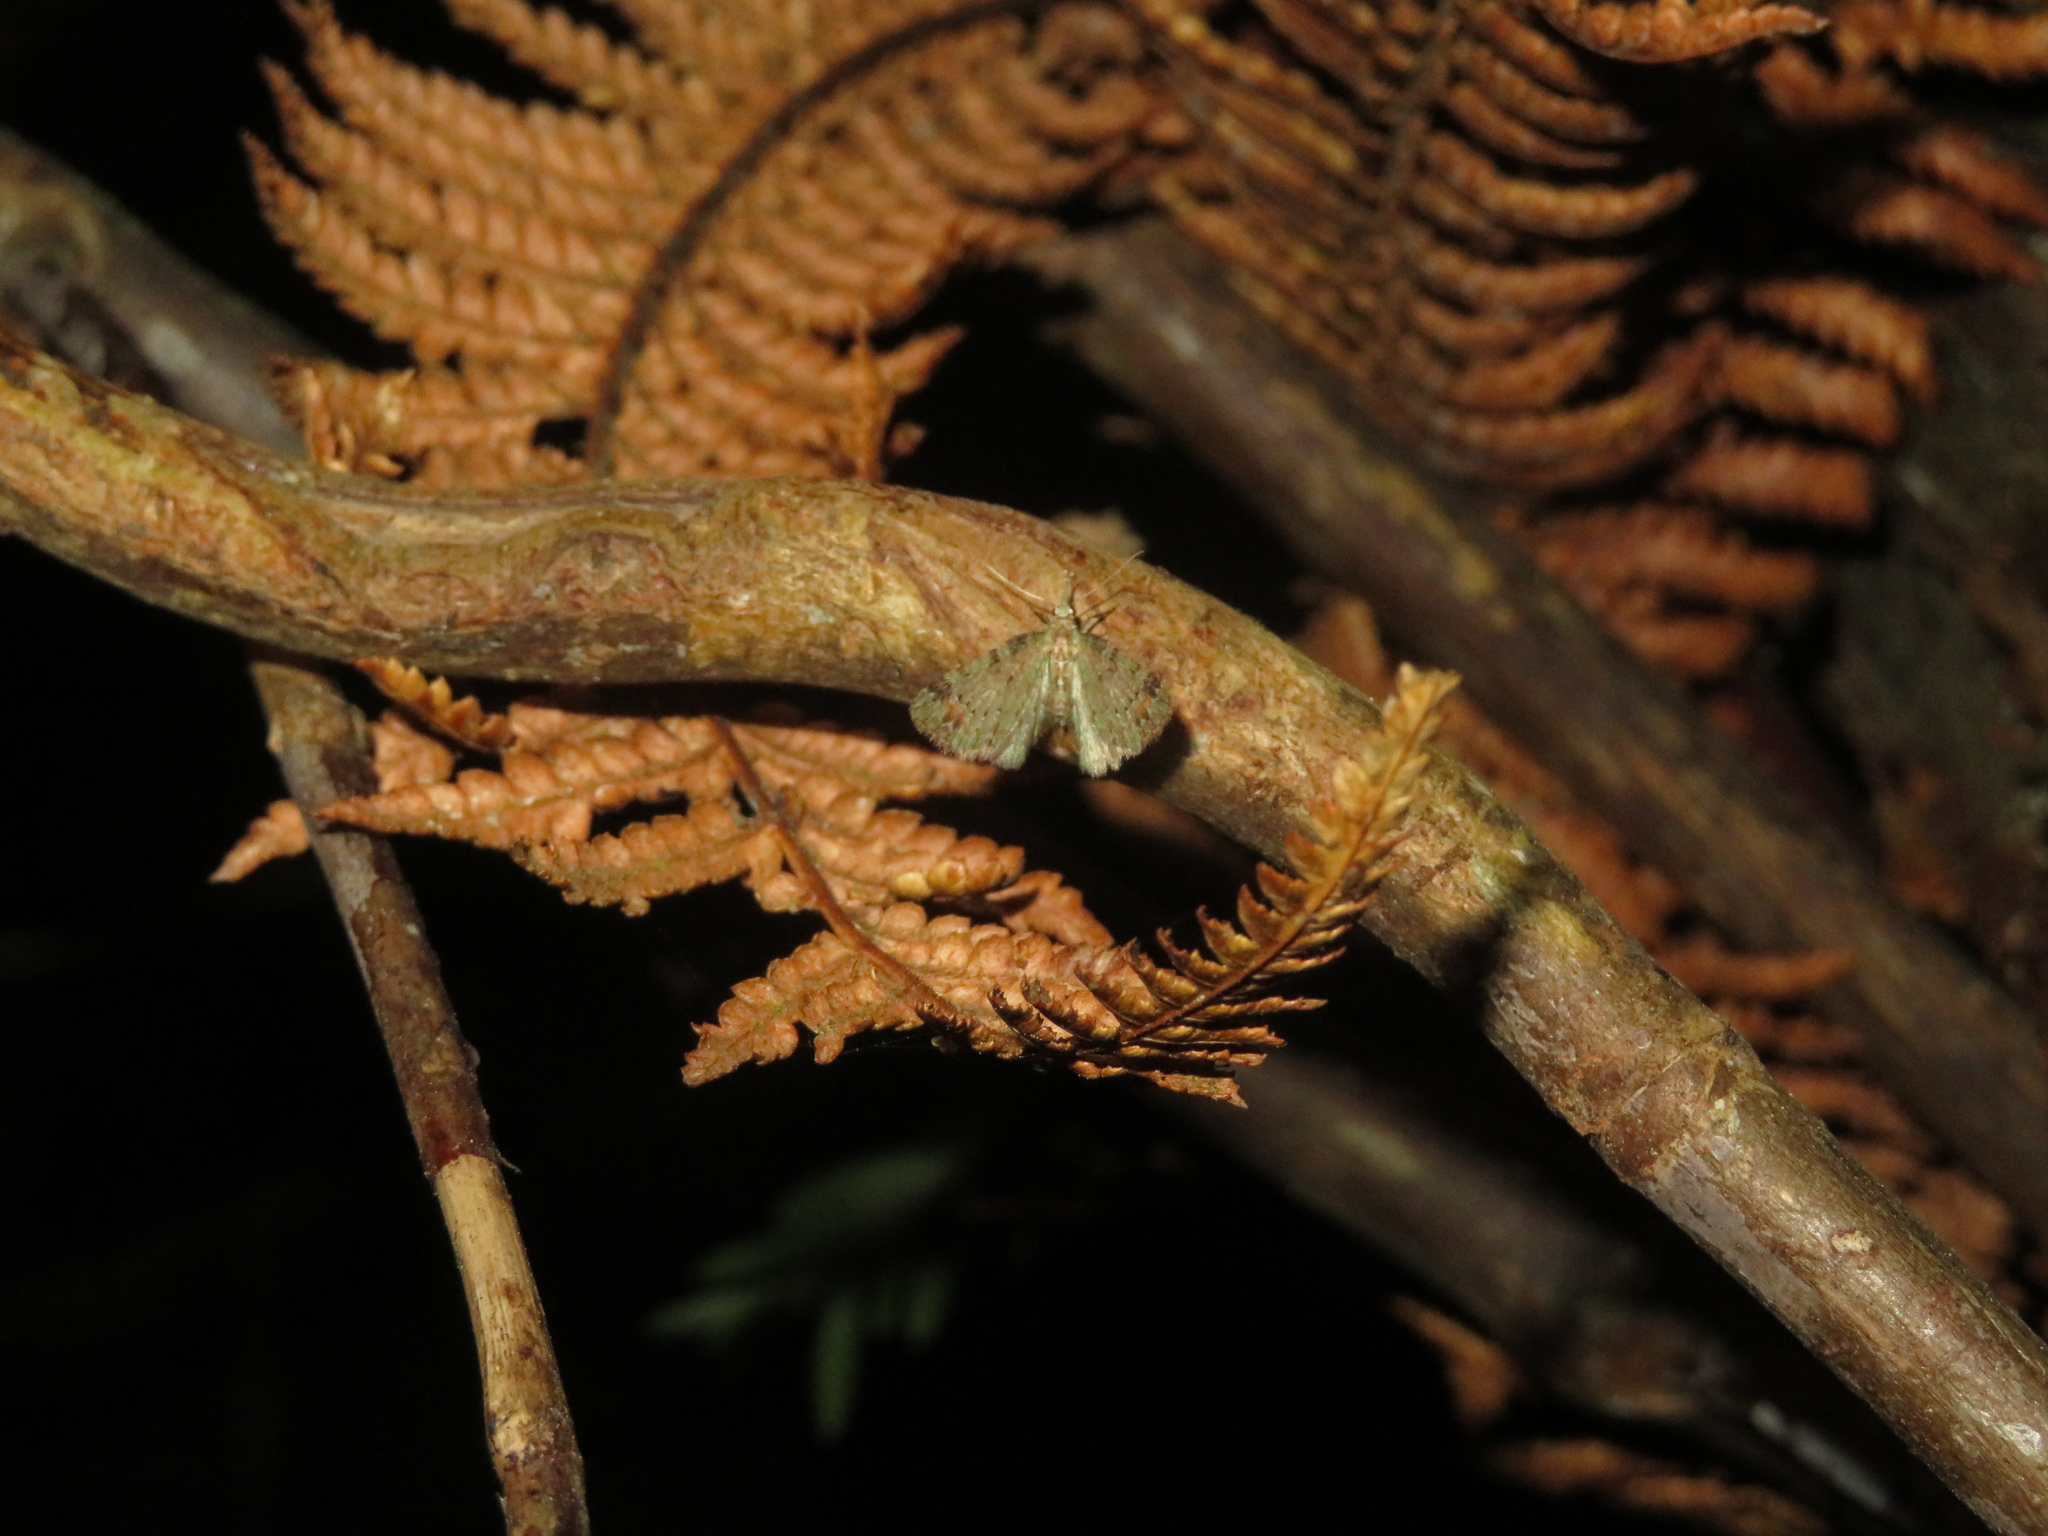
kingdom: Animalia
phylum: Arthropoda
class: Insecta
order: Lepidoptera
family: Geometridae
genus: Pasiphila
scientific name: Pasiphila plinthina
